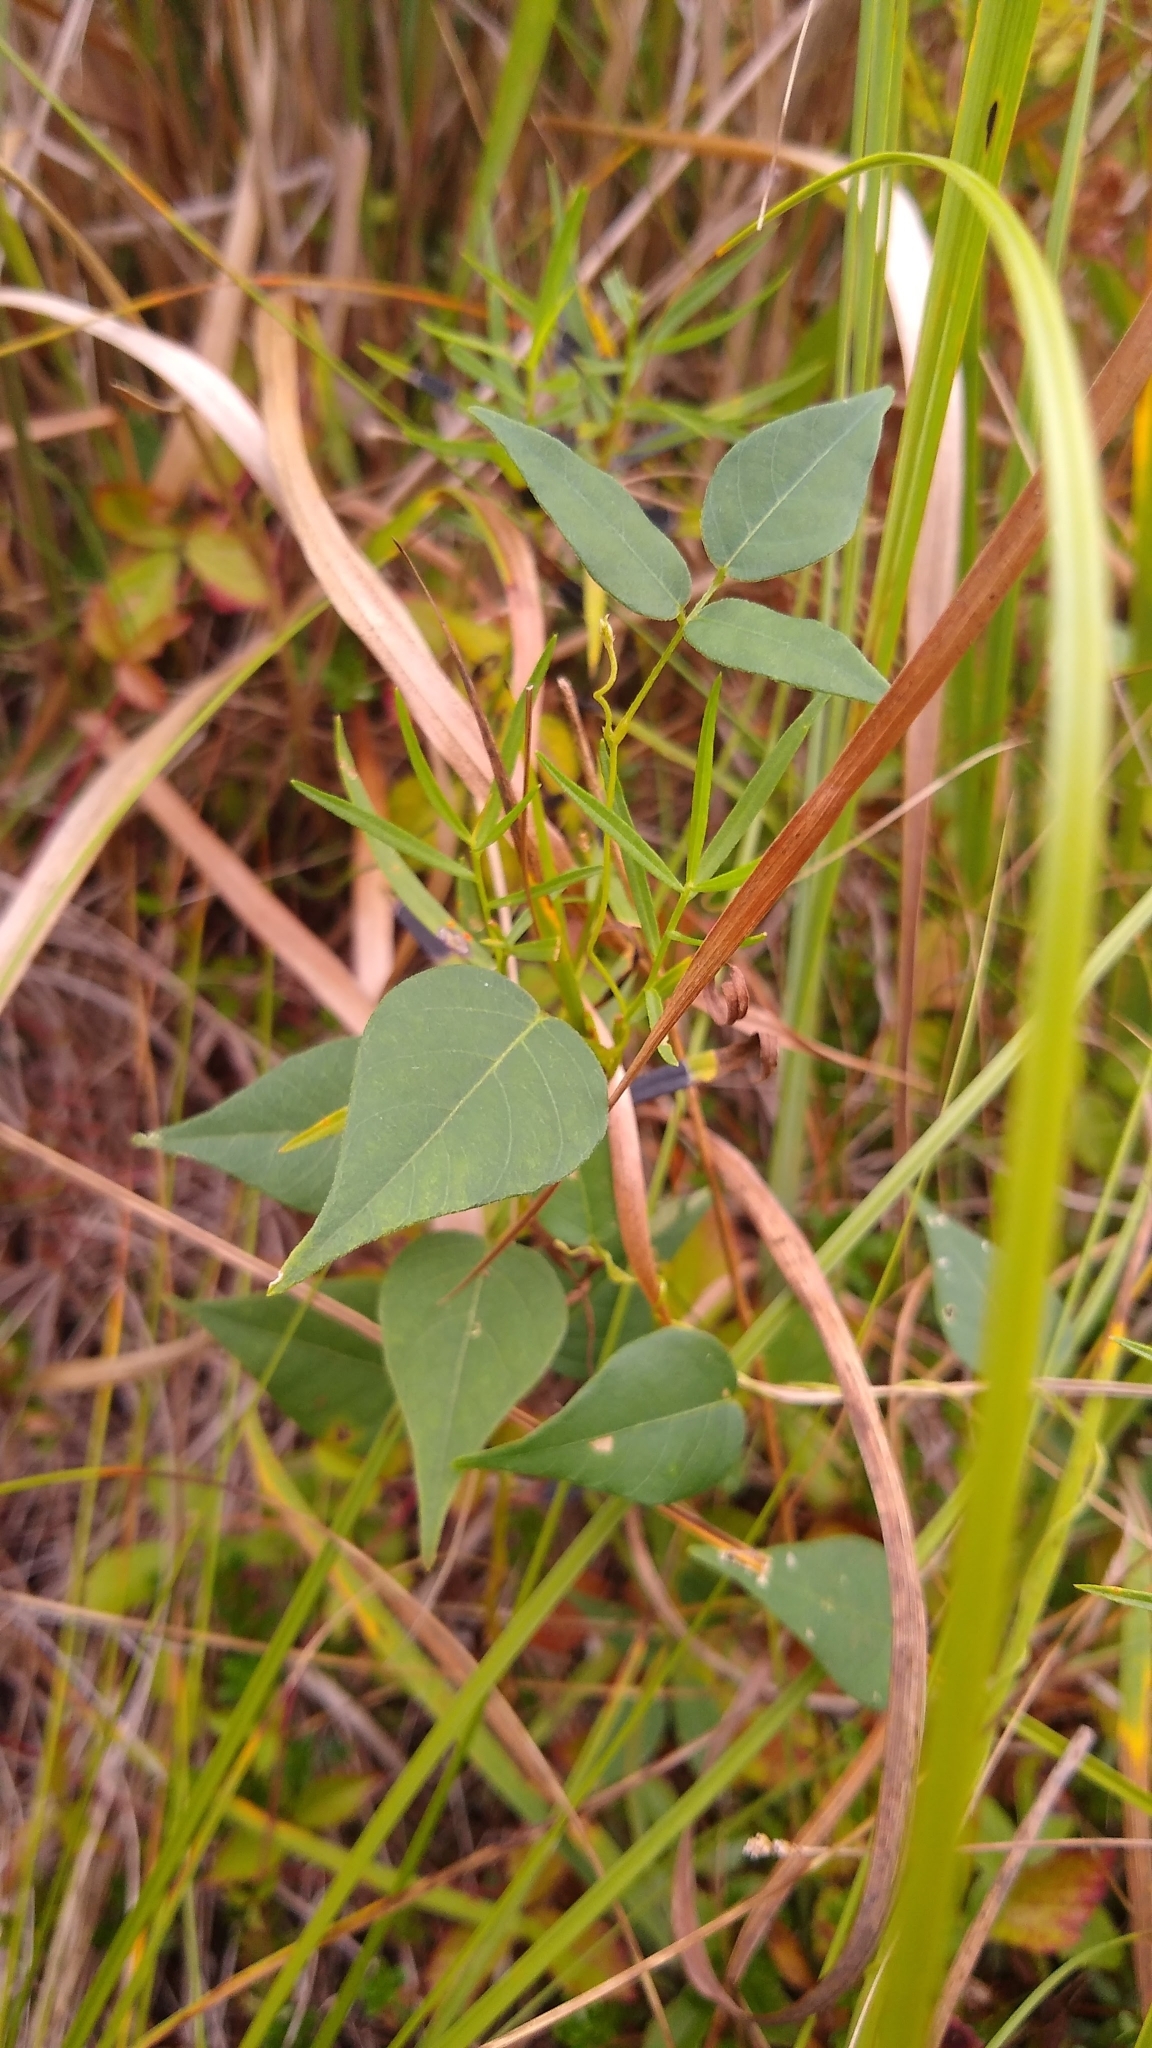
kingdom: Plantae
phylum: Tracheophyta
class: Magnoliopsida
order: Fabales
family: Fabaceae
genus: Apios
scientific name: Apios americana
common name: American potato-bean
